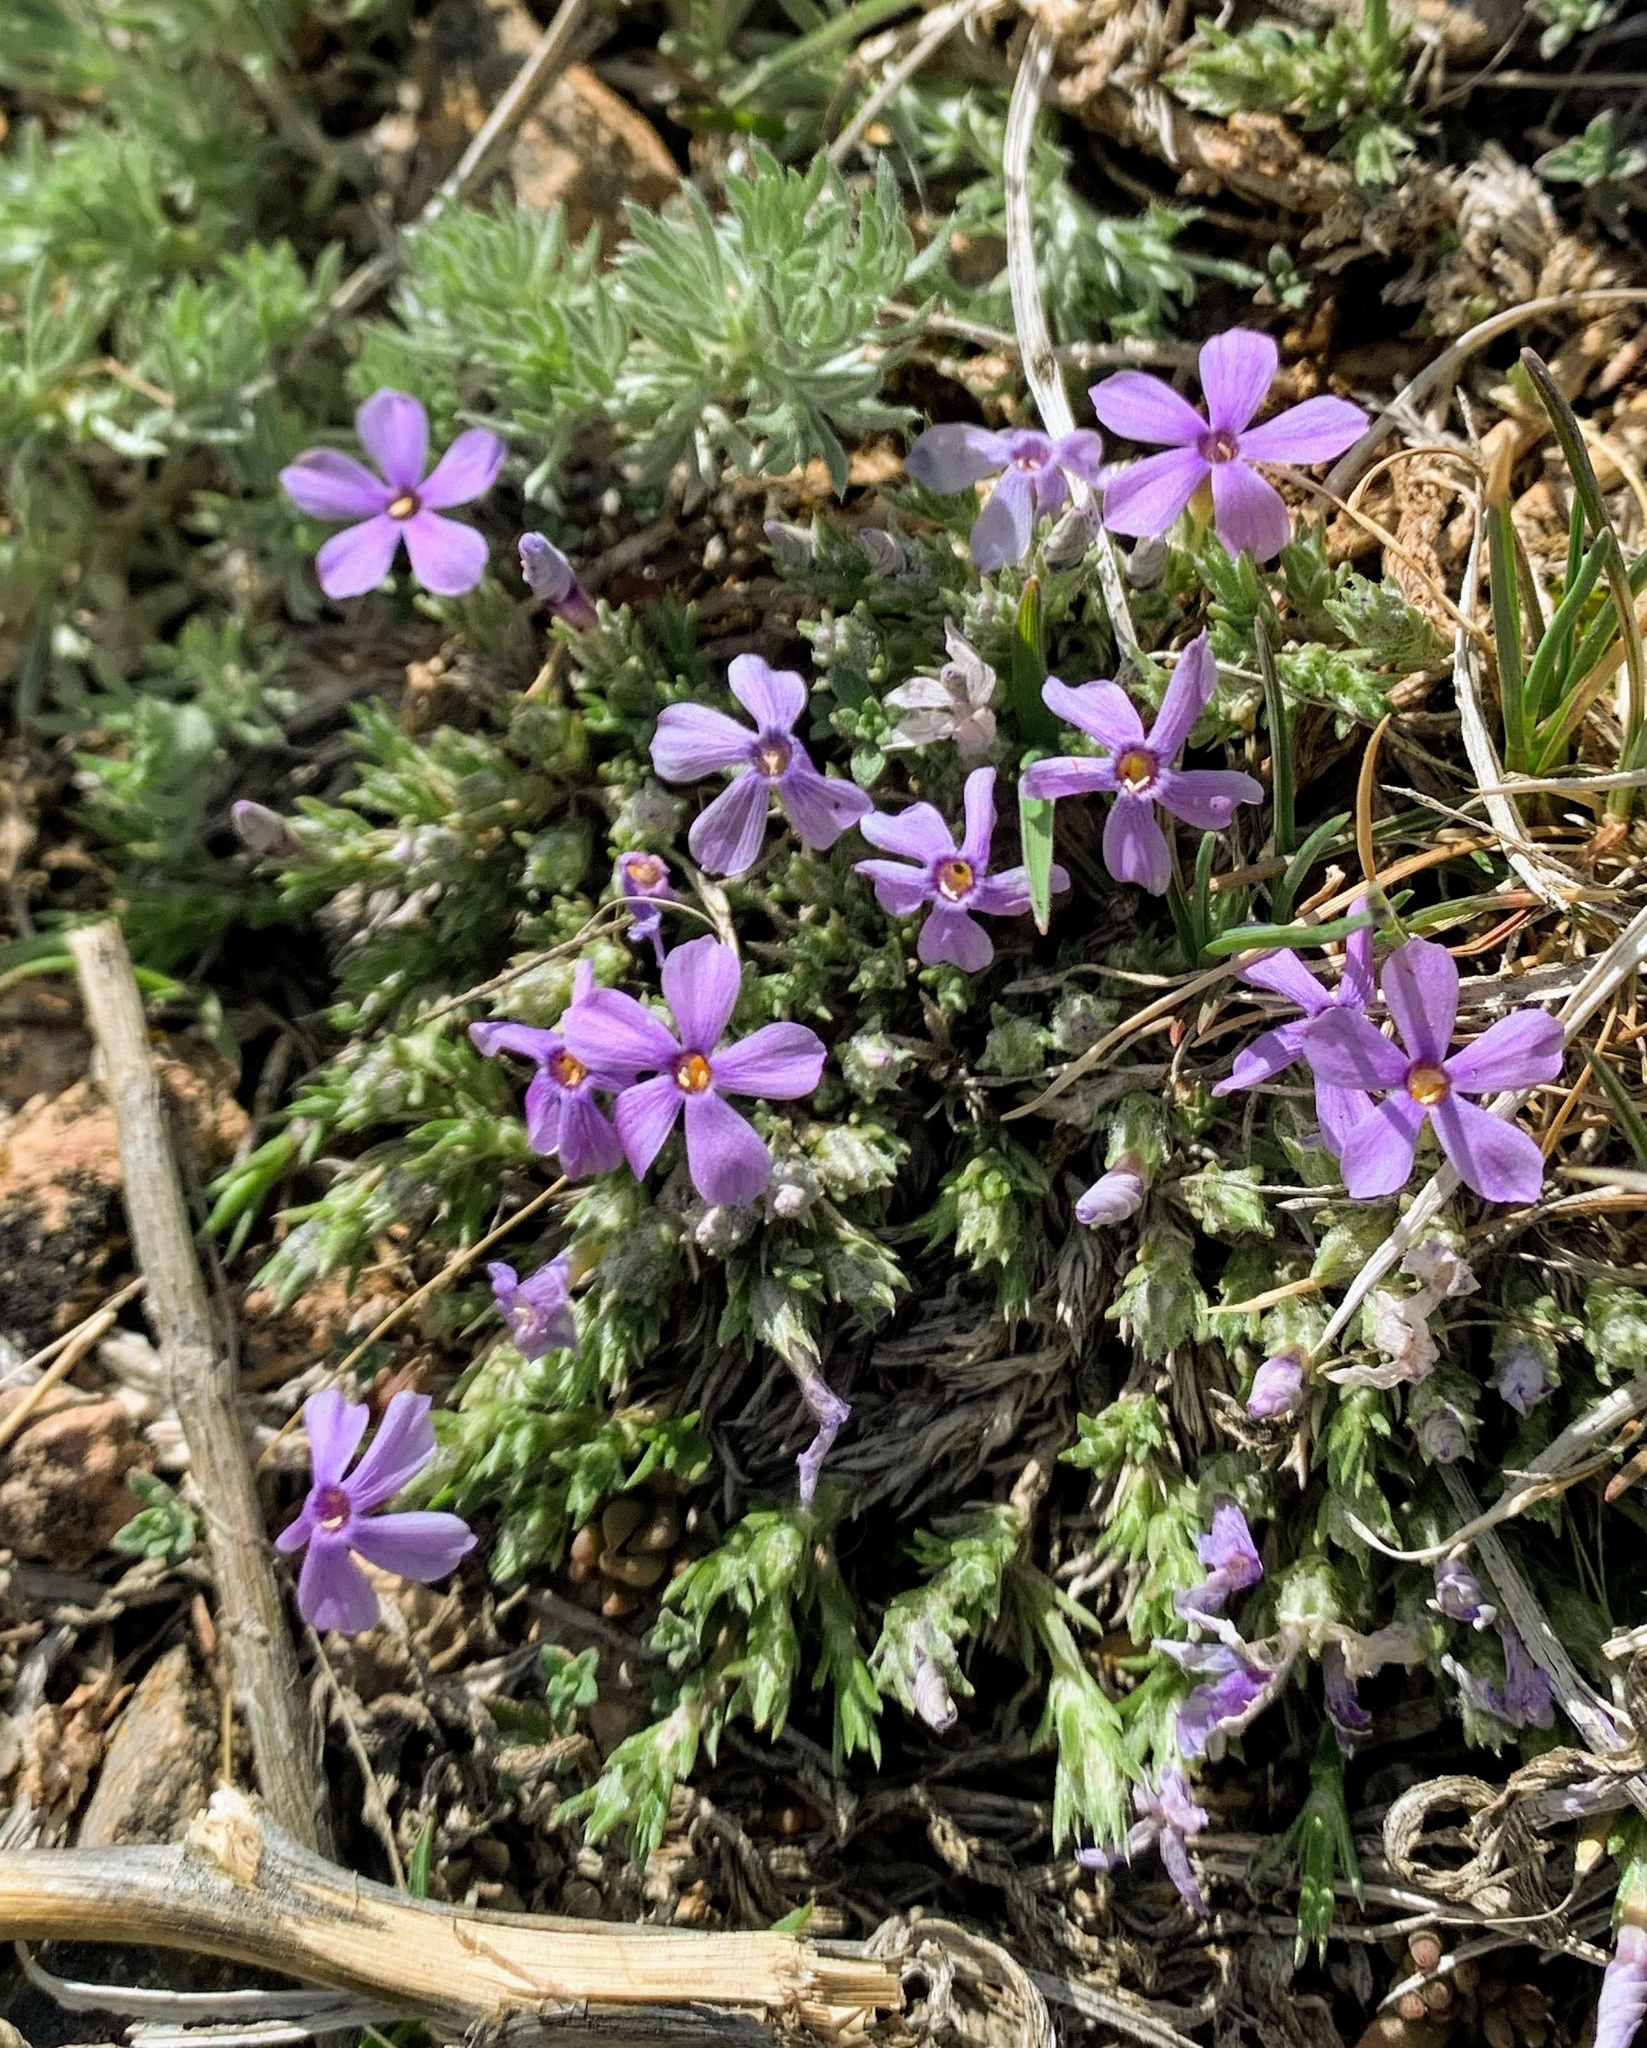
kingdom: Plantae
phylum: Tracheophyta
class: Magnoliopsida
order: Ericales
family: Polemoniaceae
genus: Phlox
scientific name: Phlox hoodii
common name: Moss phlox
